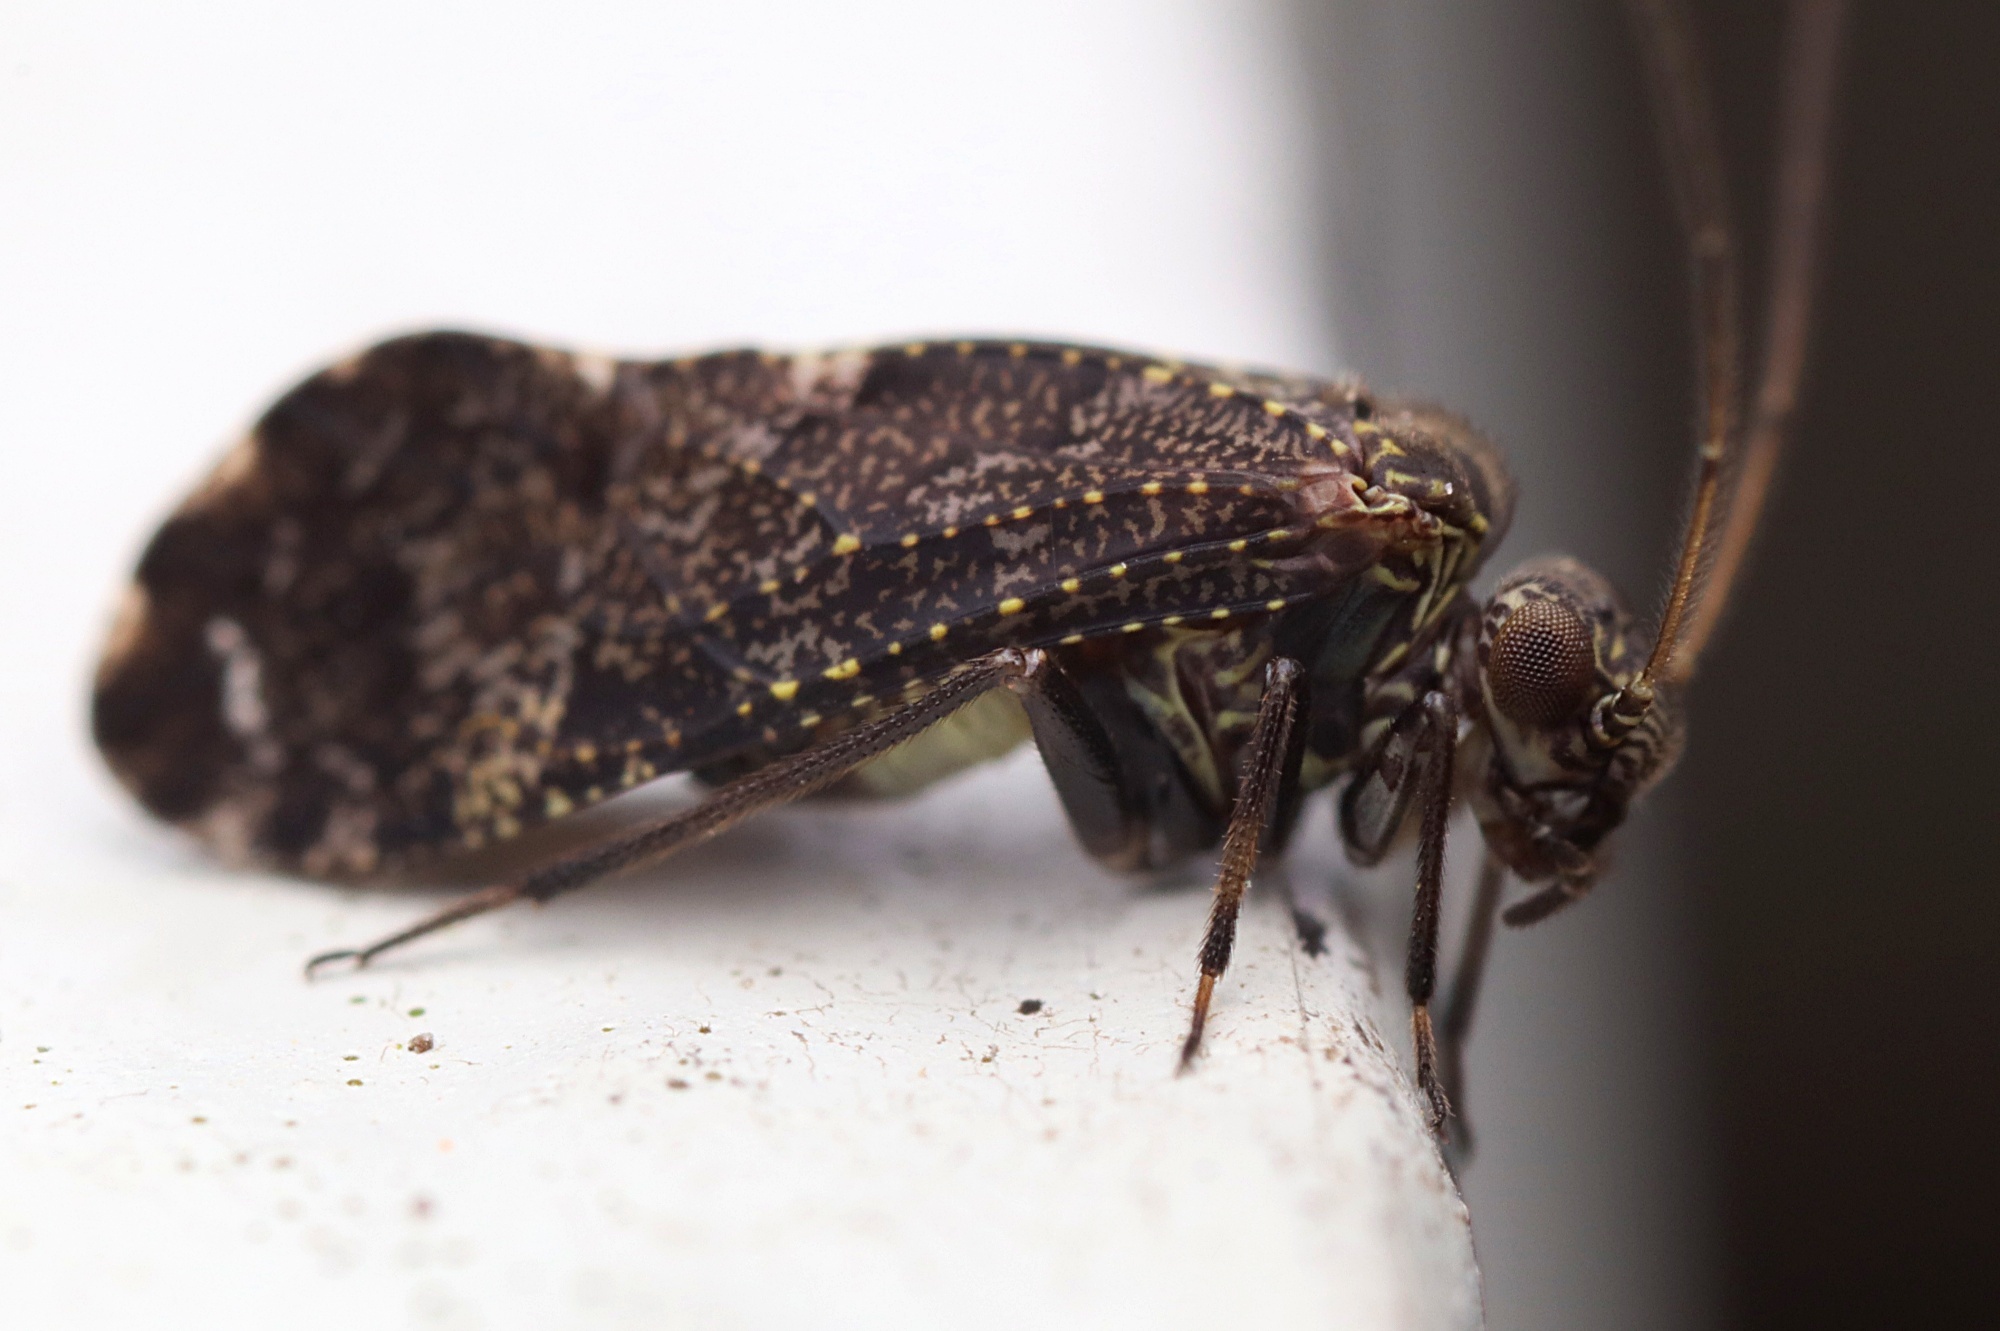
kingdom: Animalia
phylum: Arthropoda
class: Insecta
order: Psocodea
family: Myopsocidae
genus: Nimbopsocus
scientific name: Nimbopsocus australis
